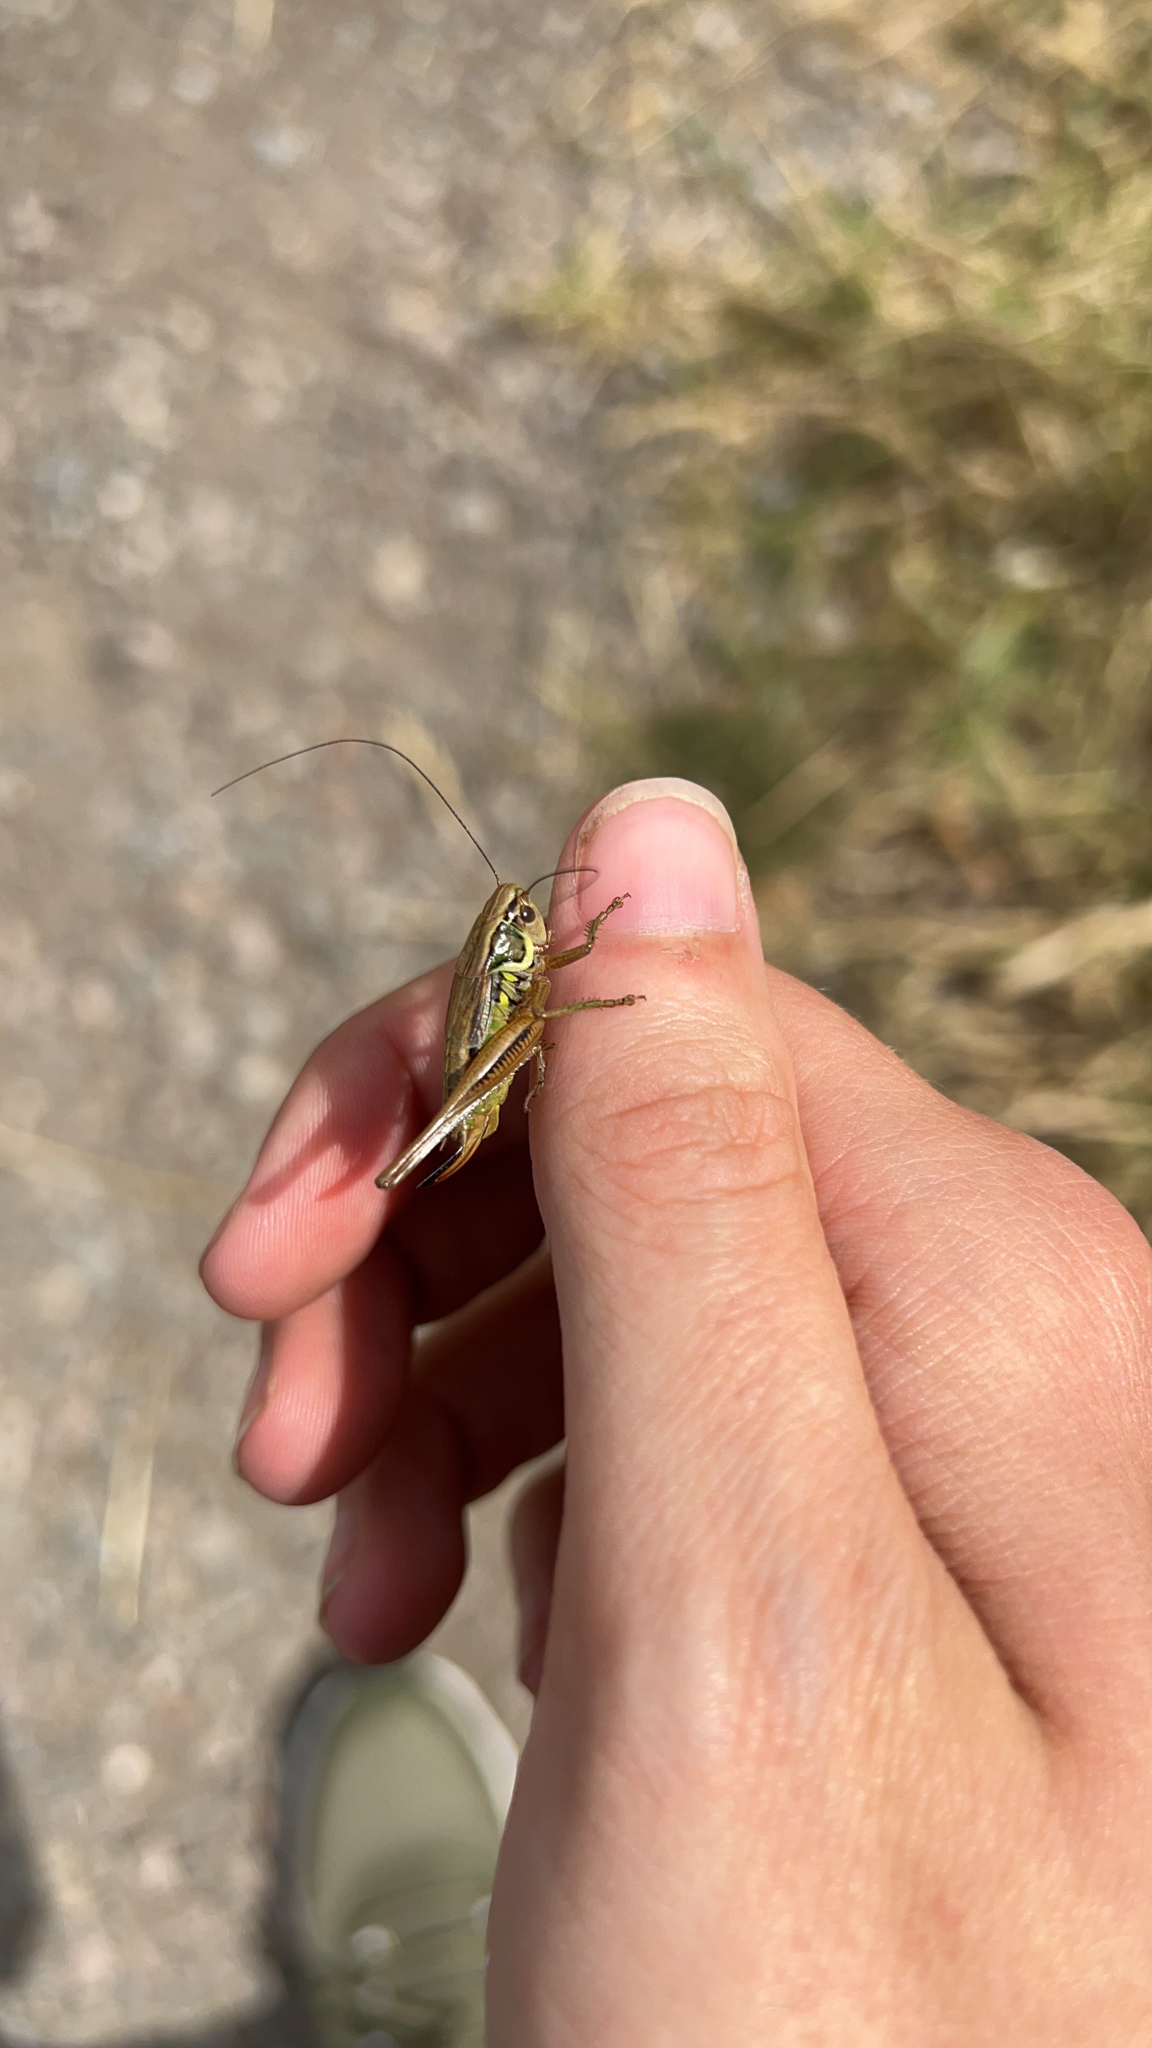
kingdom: Animalia
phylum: Arthropoda
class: Insecta
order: Orthoptera
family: Tettigoniidae
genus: Roeseliana
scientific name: Roeseliana roeselii
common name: Roesel's bush cricket
